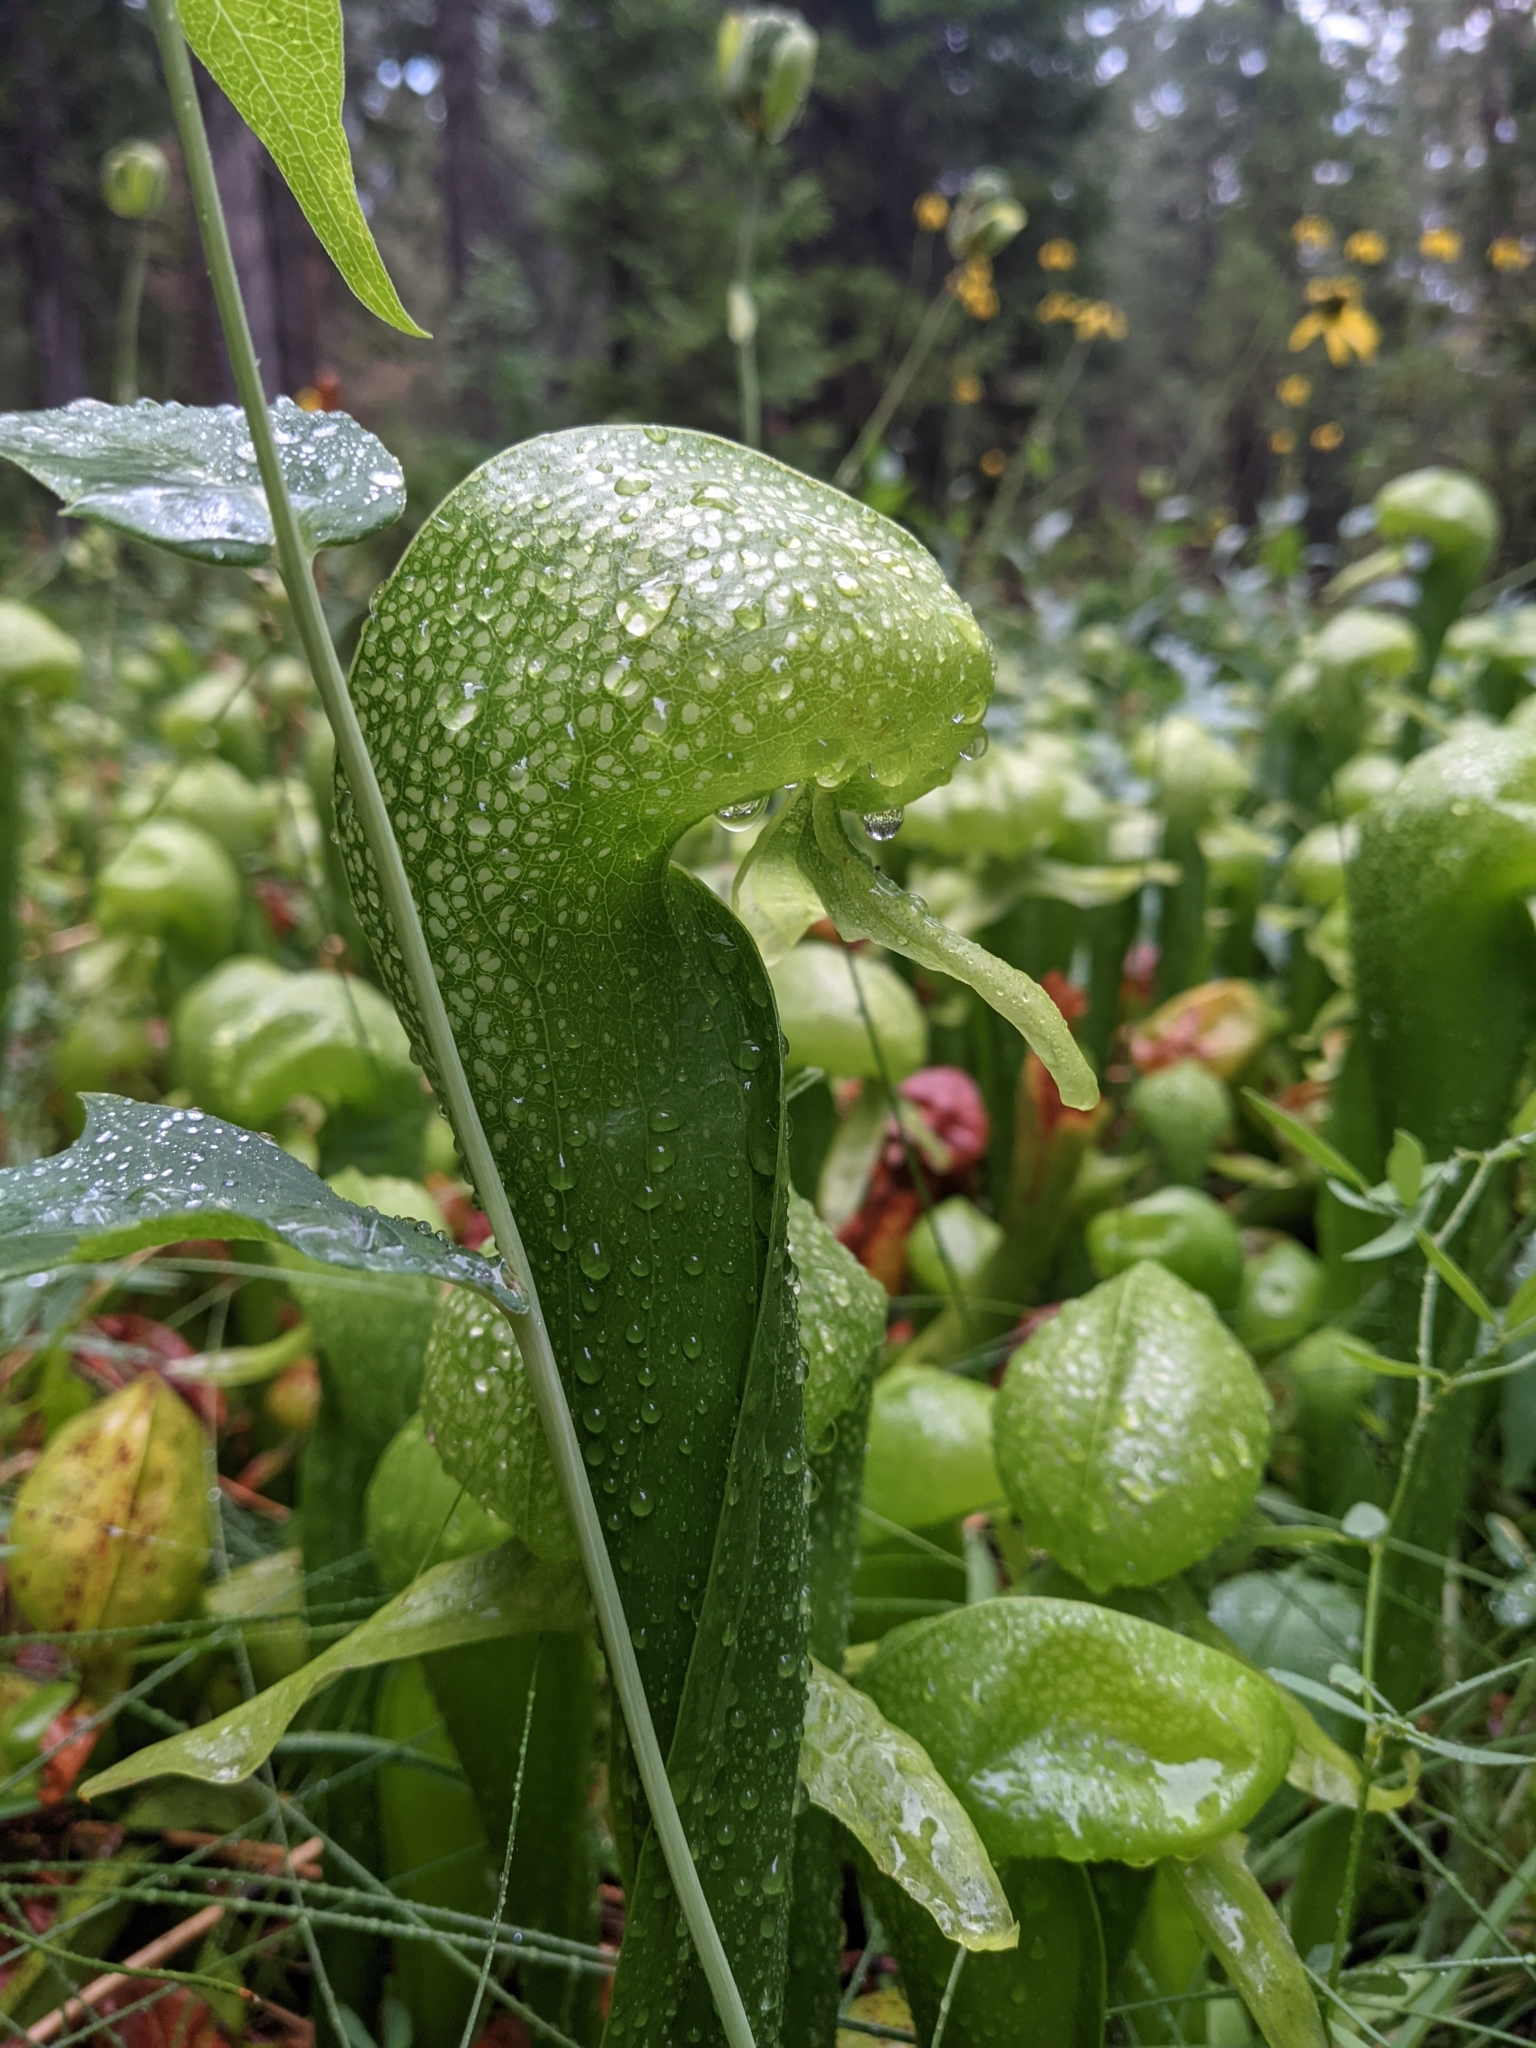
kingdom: Plantae
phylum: Tracheophyta
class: Magnoliopsida
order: Ericales
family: Sarraceniaceae
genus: Darlingtonia
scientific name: Darlingtonia californica
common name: California pitcher plant
